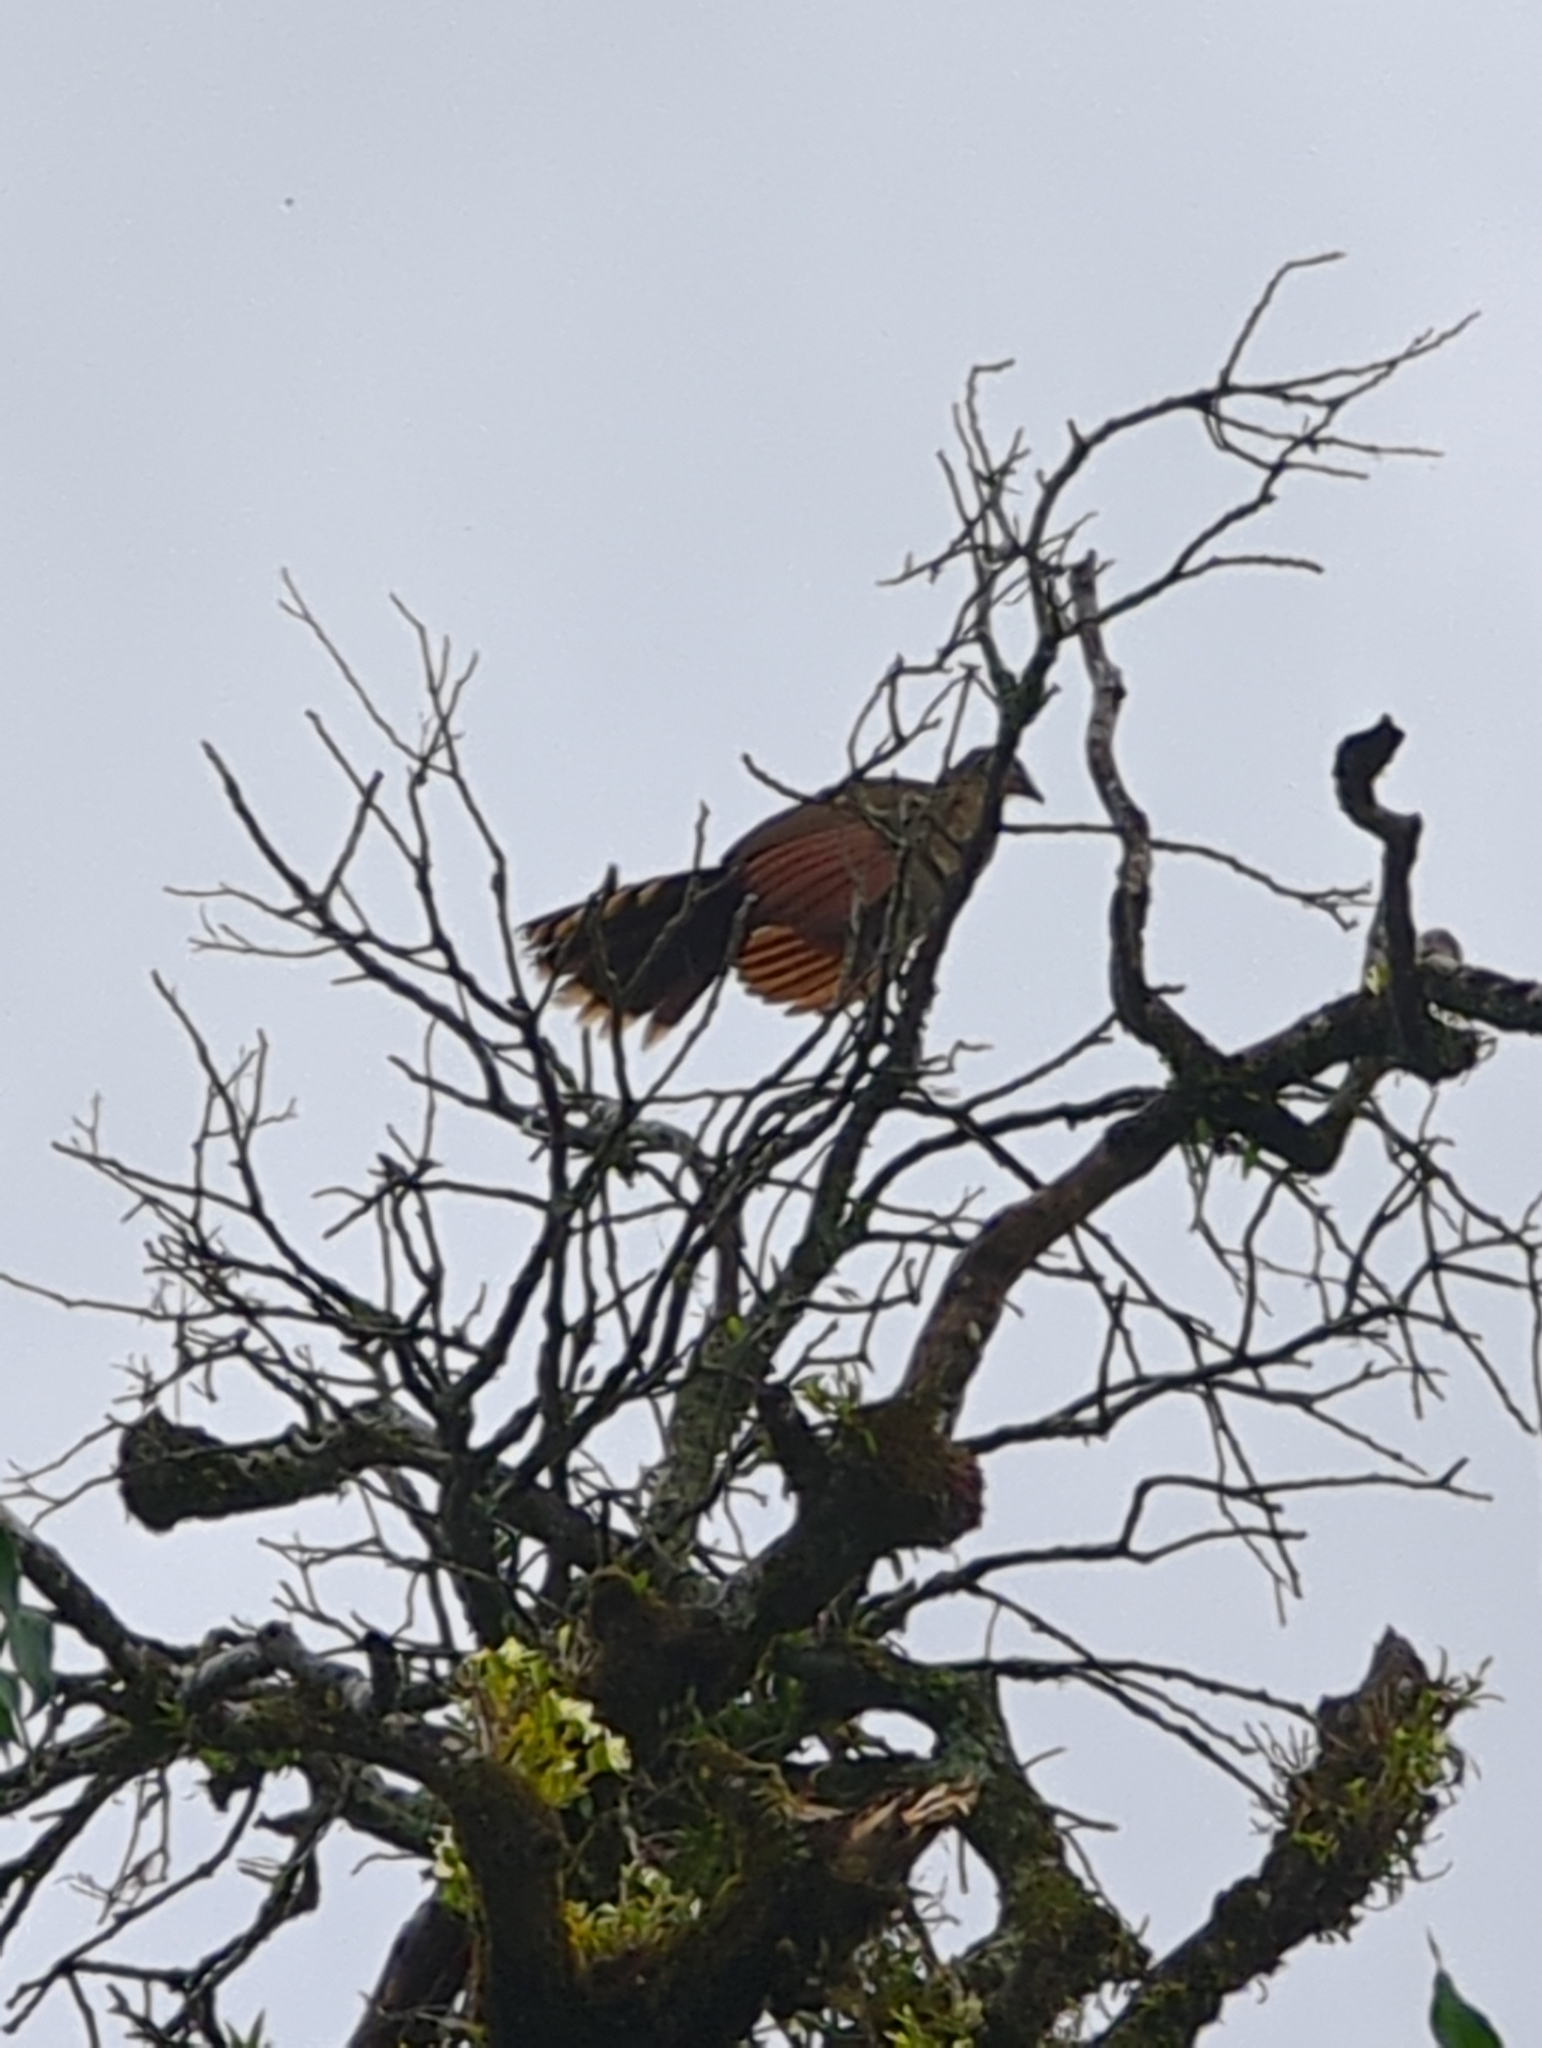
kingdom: Animalia
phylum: Chordata
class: Aves
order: Galliformes
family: Cracidae
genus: Ortalis
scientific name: Ortalis cinereiceps
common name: Grey-headed chachalaca
